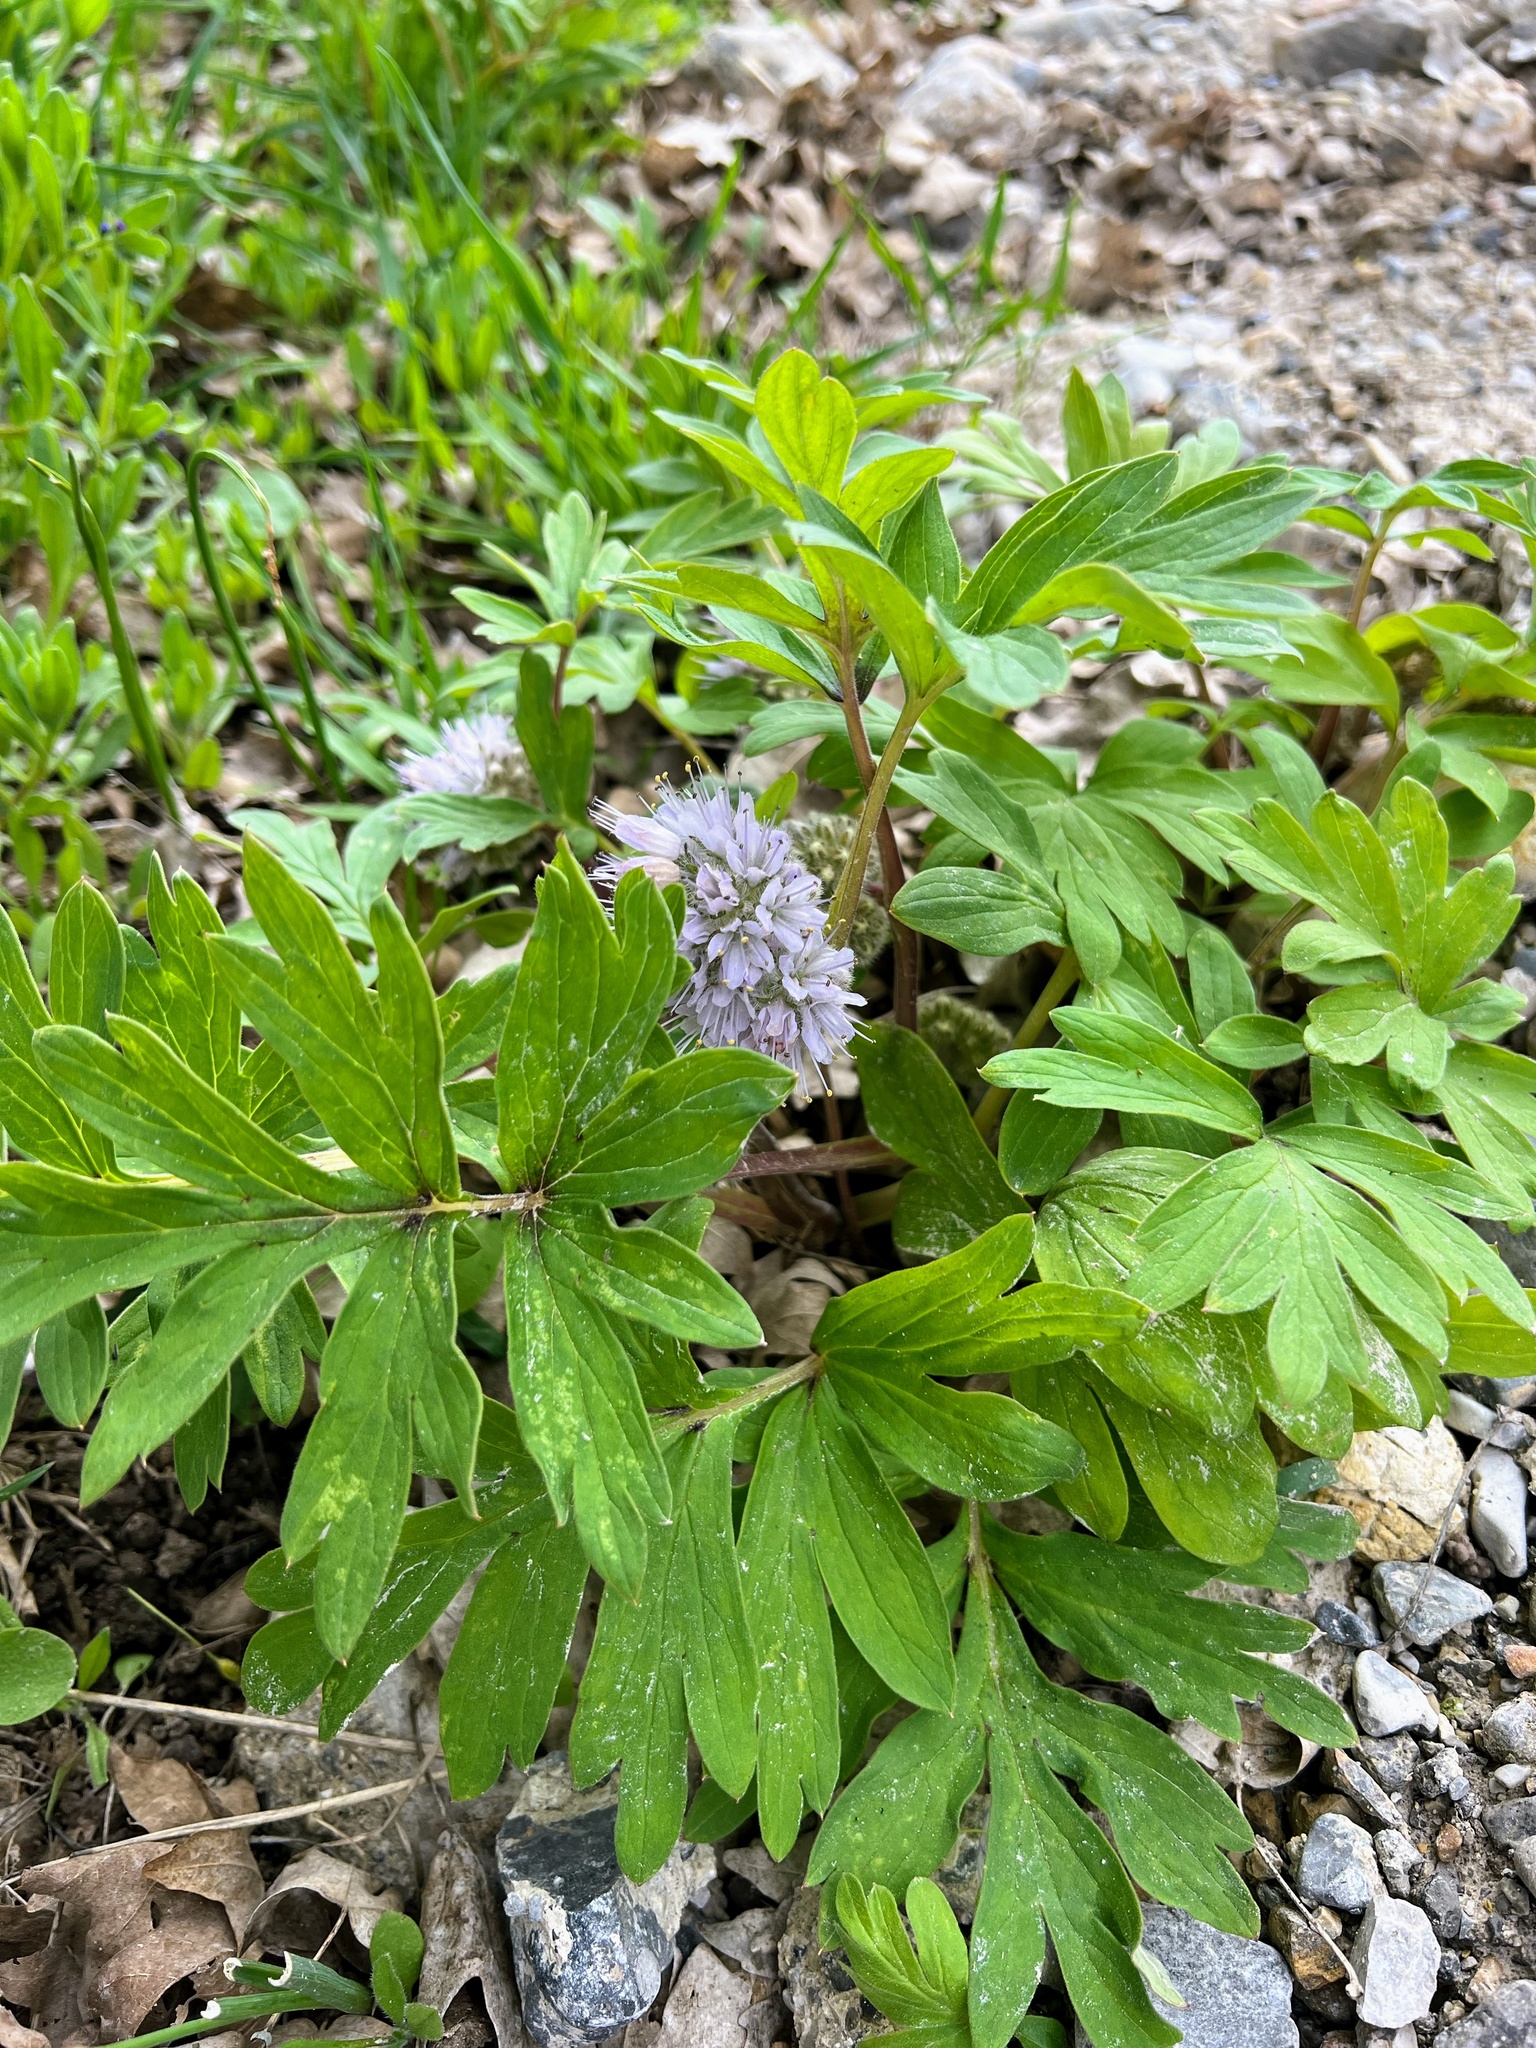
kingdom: Plantae
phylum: Tracheophyta
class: Magnoliopsida
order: Boraginales
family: Hydrophyllaceae
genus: Hydrophyllum
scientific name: Hydrophyllum capitatum
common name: Woollen-breeches
